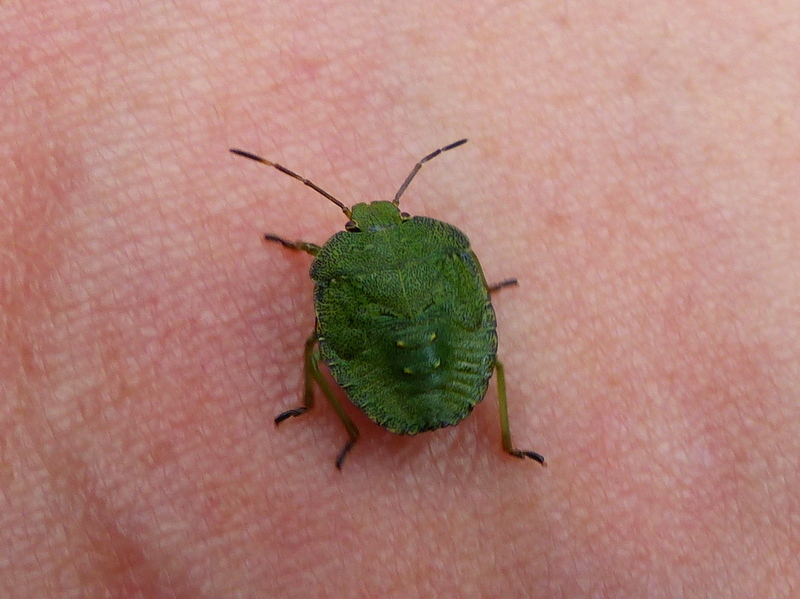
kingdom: Animalia
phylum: Arthropoda
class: Insecta
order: Hemiptera
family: Pentatomidae
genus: Palomena
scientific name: Palomena prasina
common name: Green shieldbug
